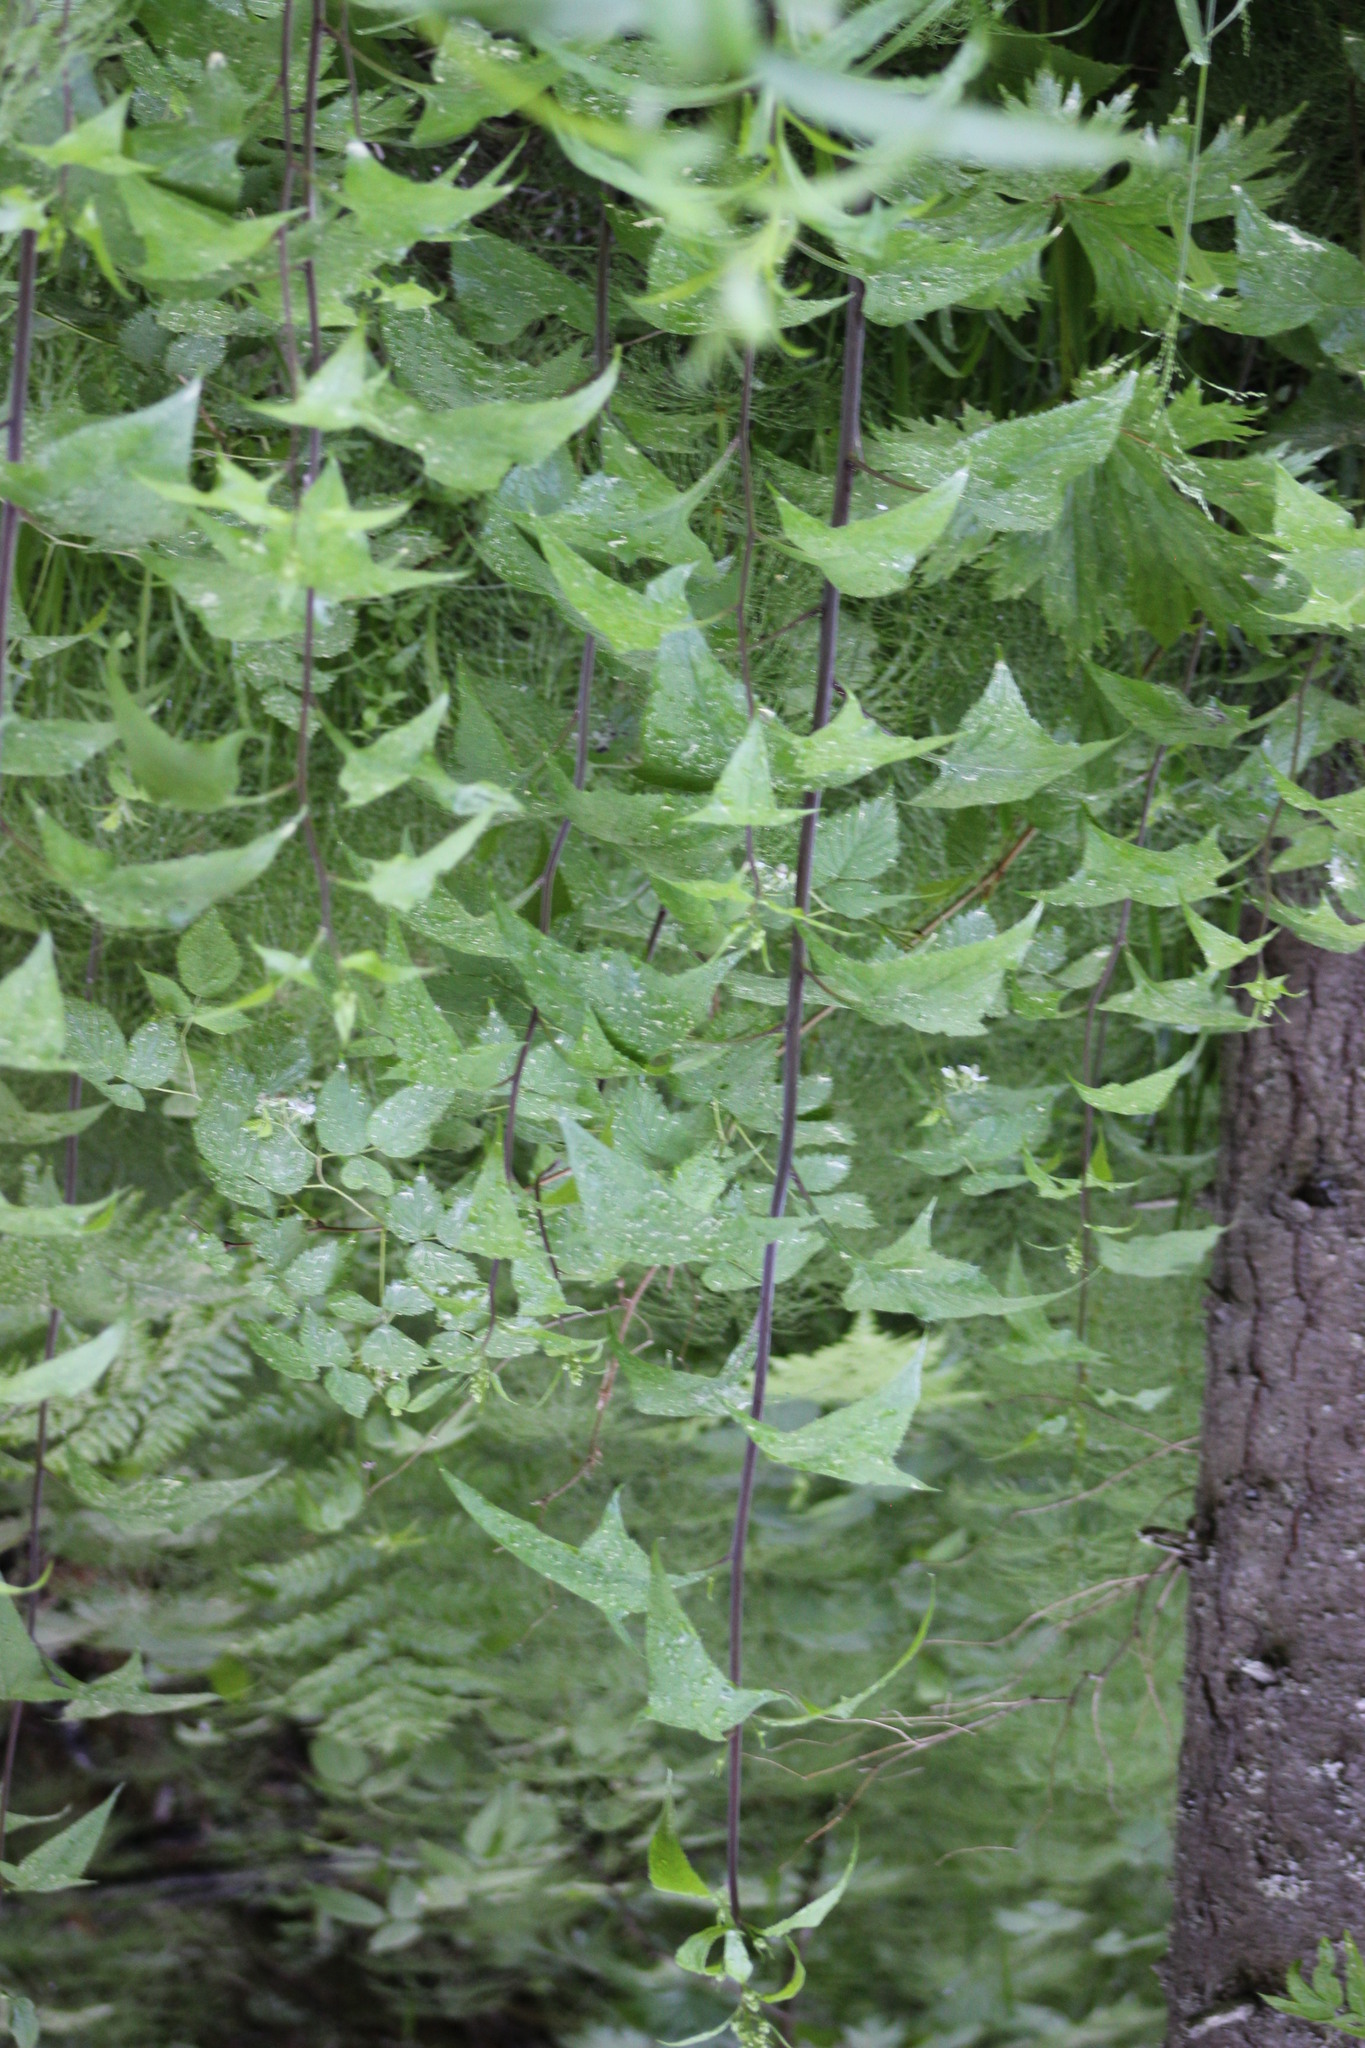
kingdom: Plantae
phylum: Tracheophyta
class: Magnoliopsida
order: Asterales
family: Asteraceae
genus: Parasenecio
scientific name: Parasenecio hastatus
